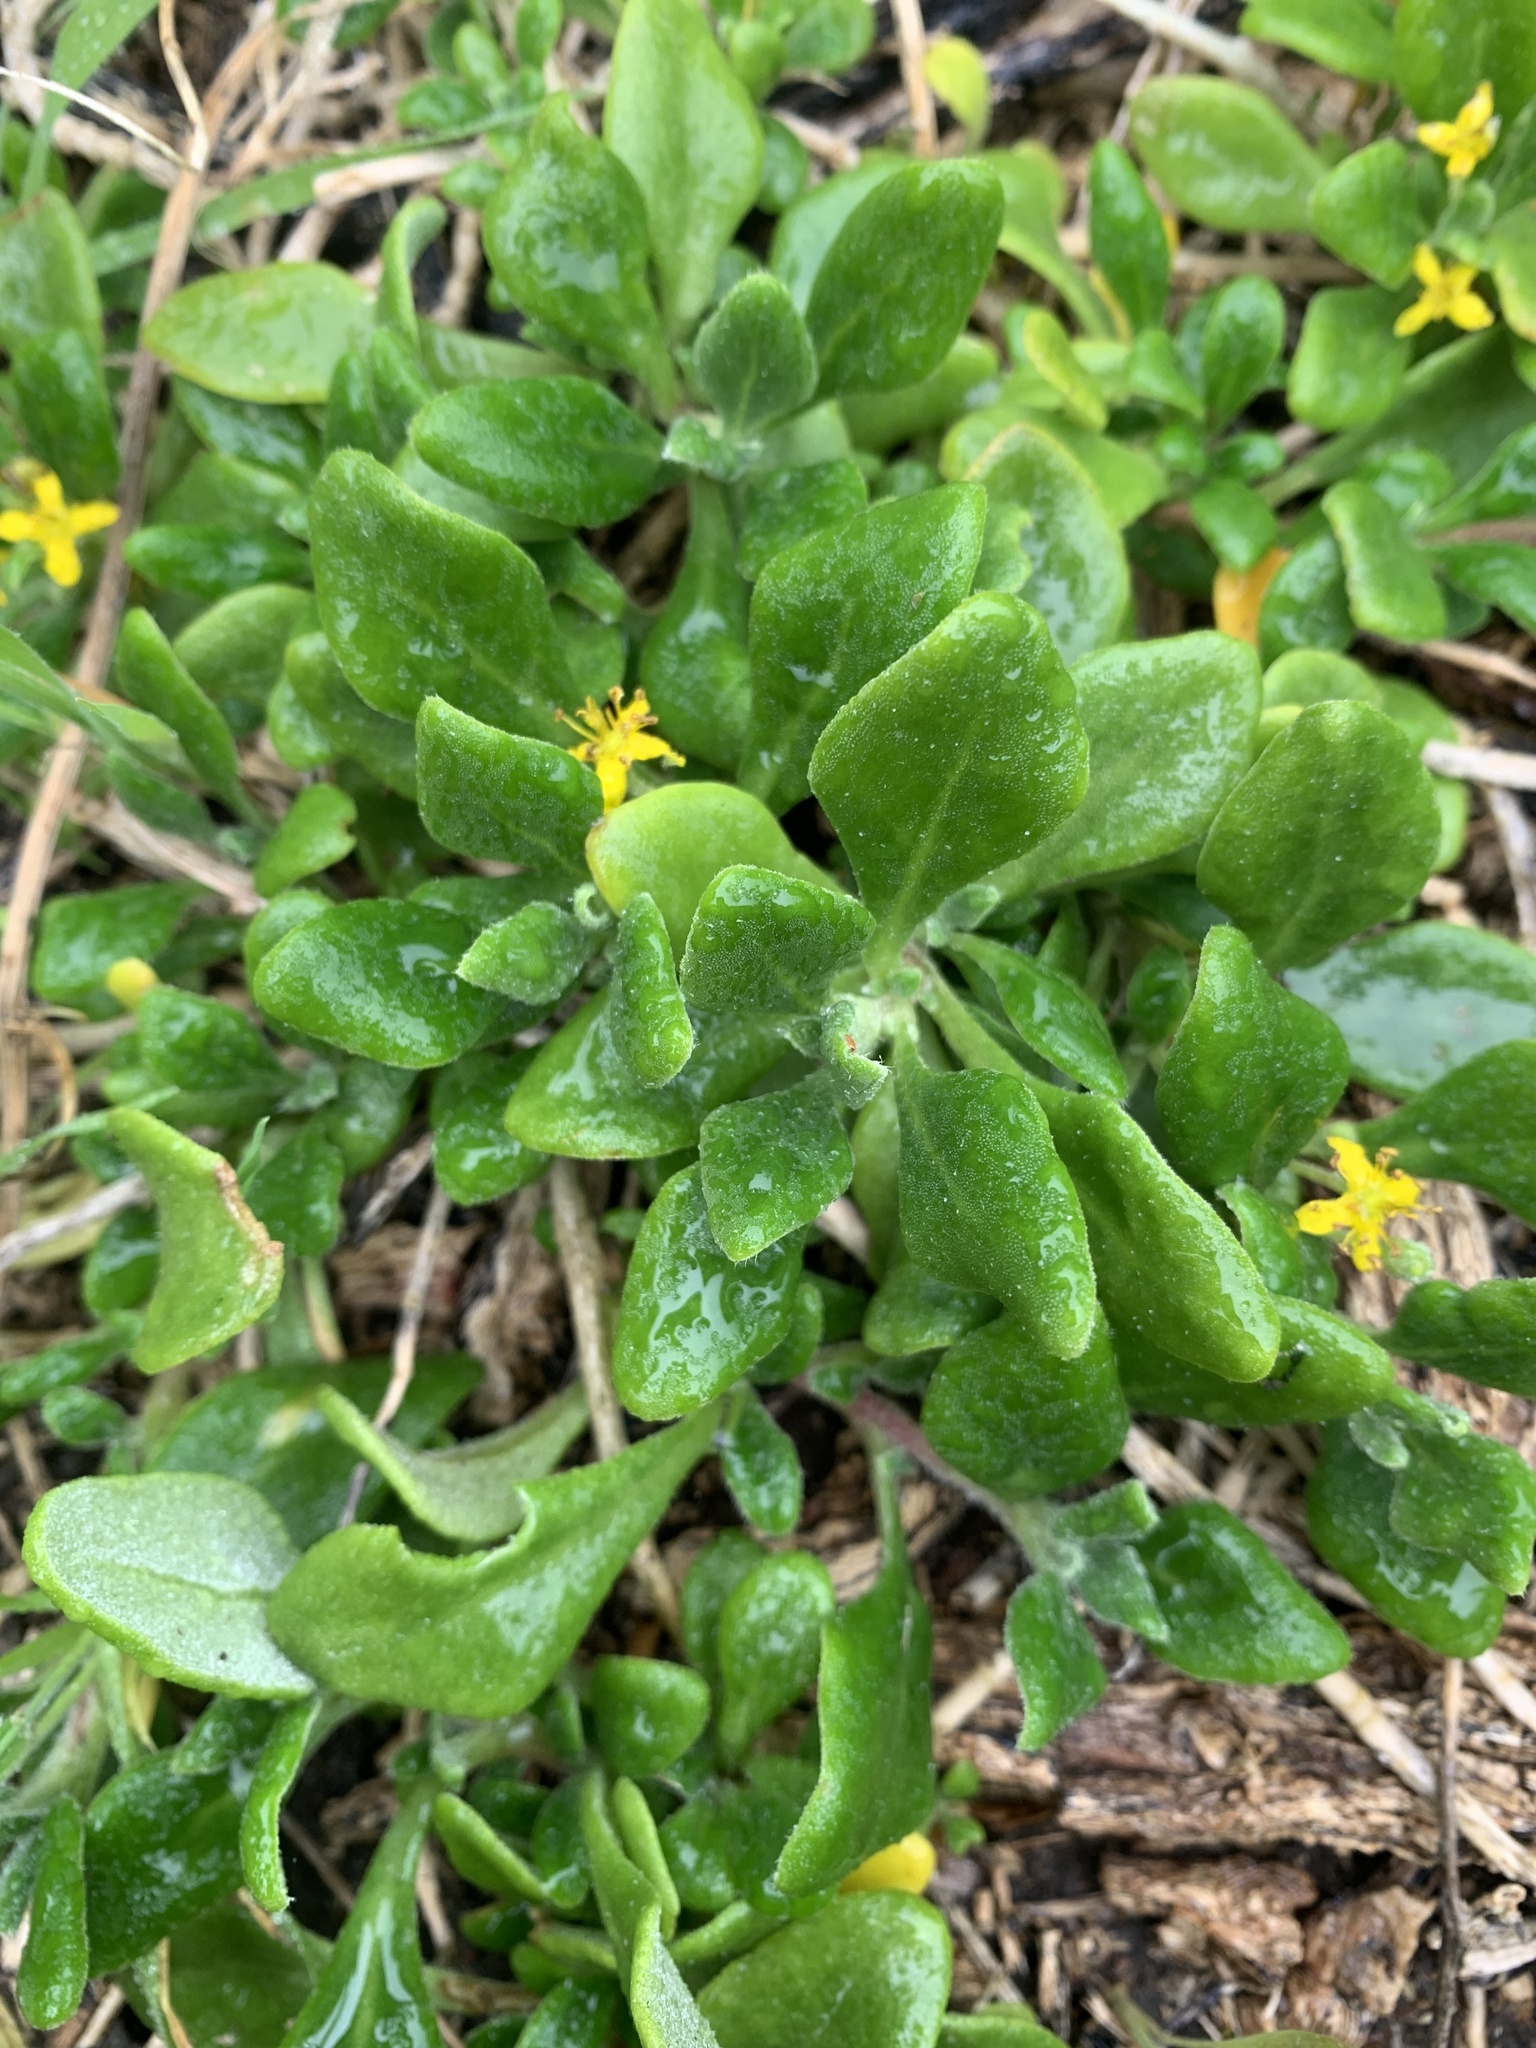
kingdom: Plantae
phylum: Tracheophyta
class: Magnoliopsida
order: Caryophyllales
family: Aizoaceae
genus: Tetragonia
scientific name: Tetragonia implexicoma
